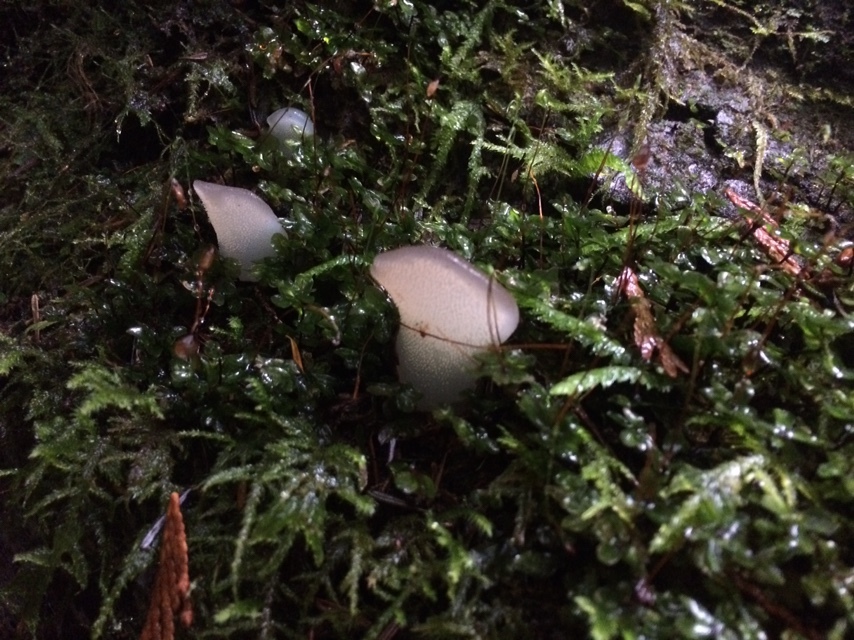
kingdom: Fungi
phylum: Basidiomycota
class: Agaricomycetes
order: Auriculariales
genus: Pseudohydnum
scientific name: Pseudohydnum gelatinosum
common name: Jelly tongue
